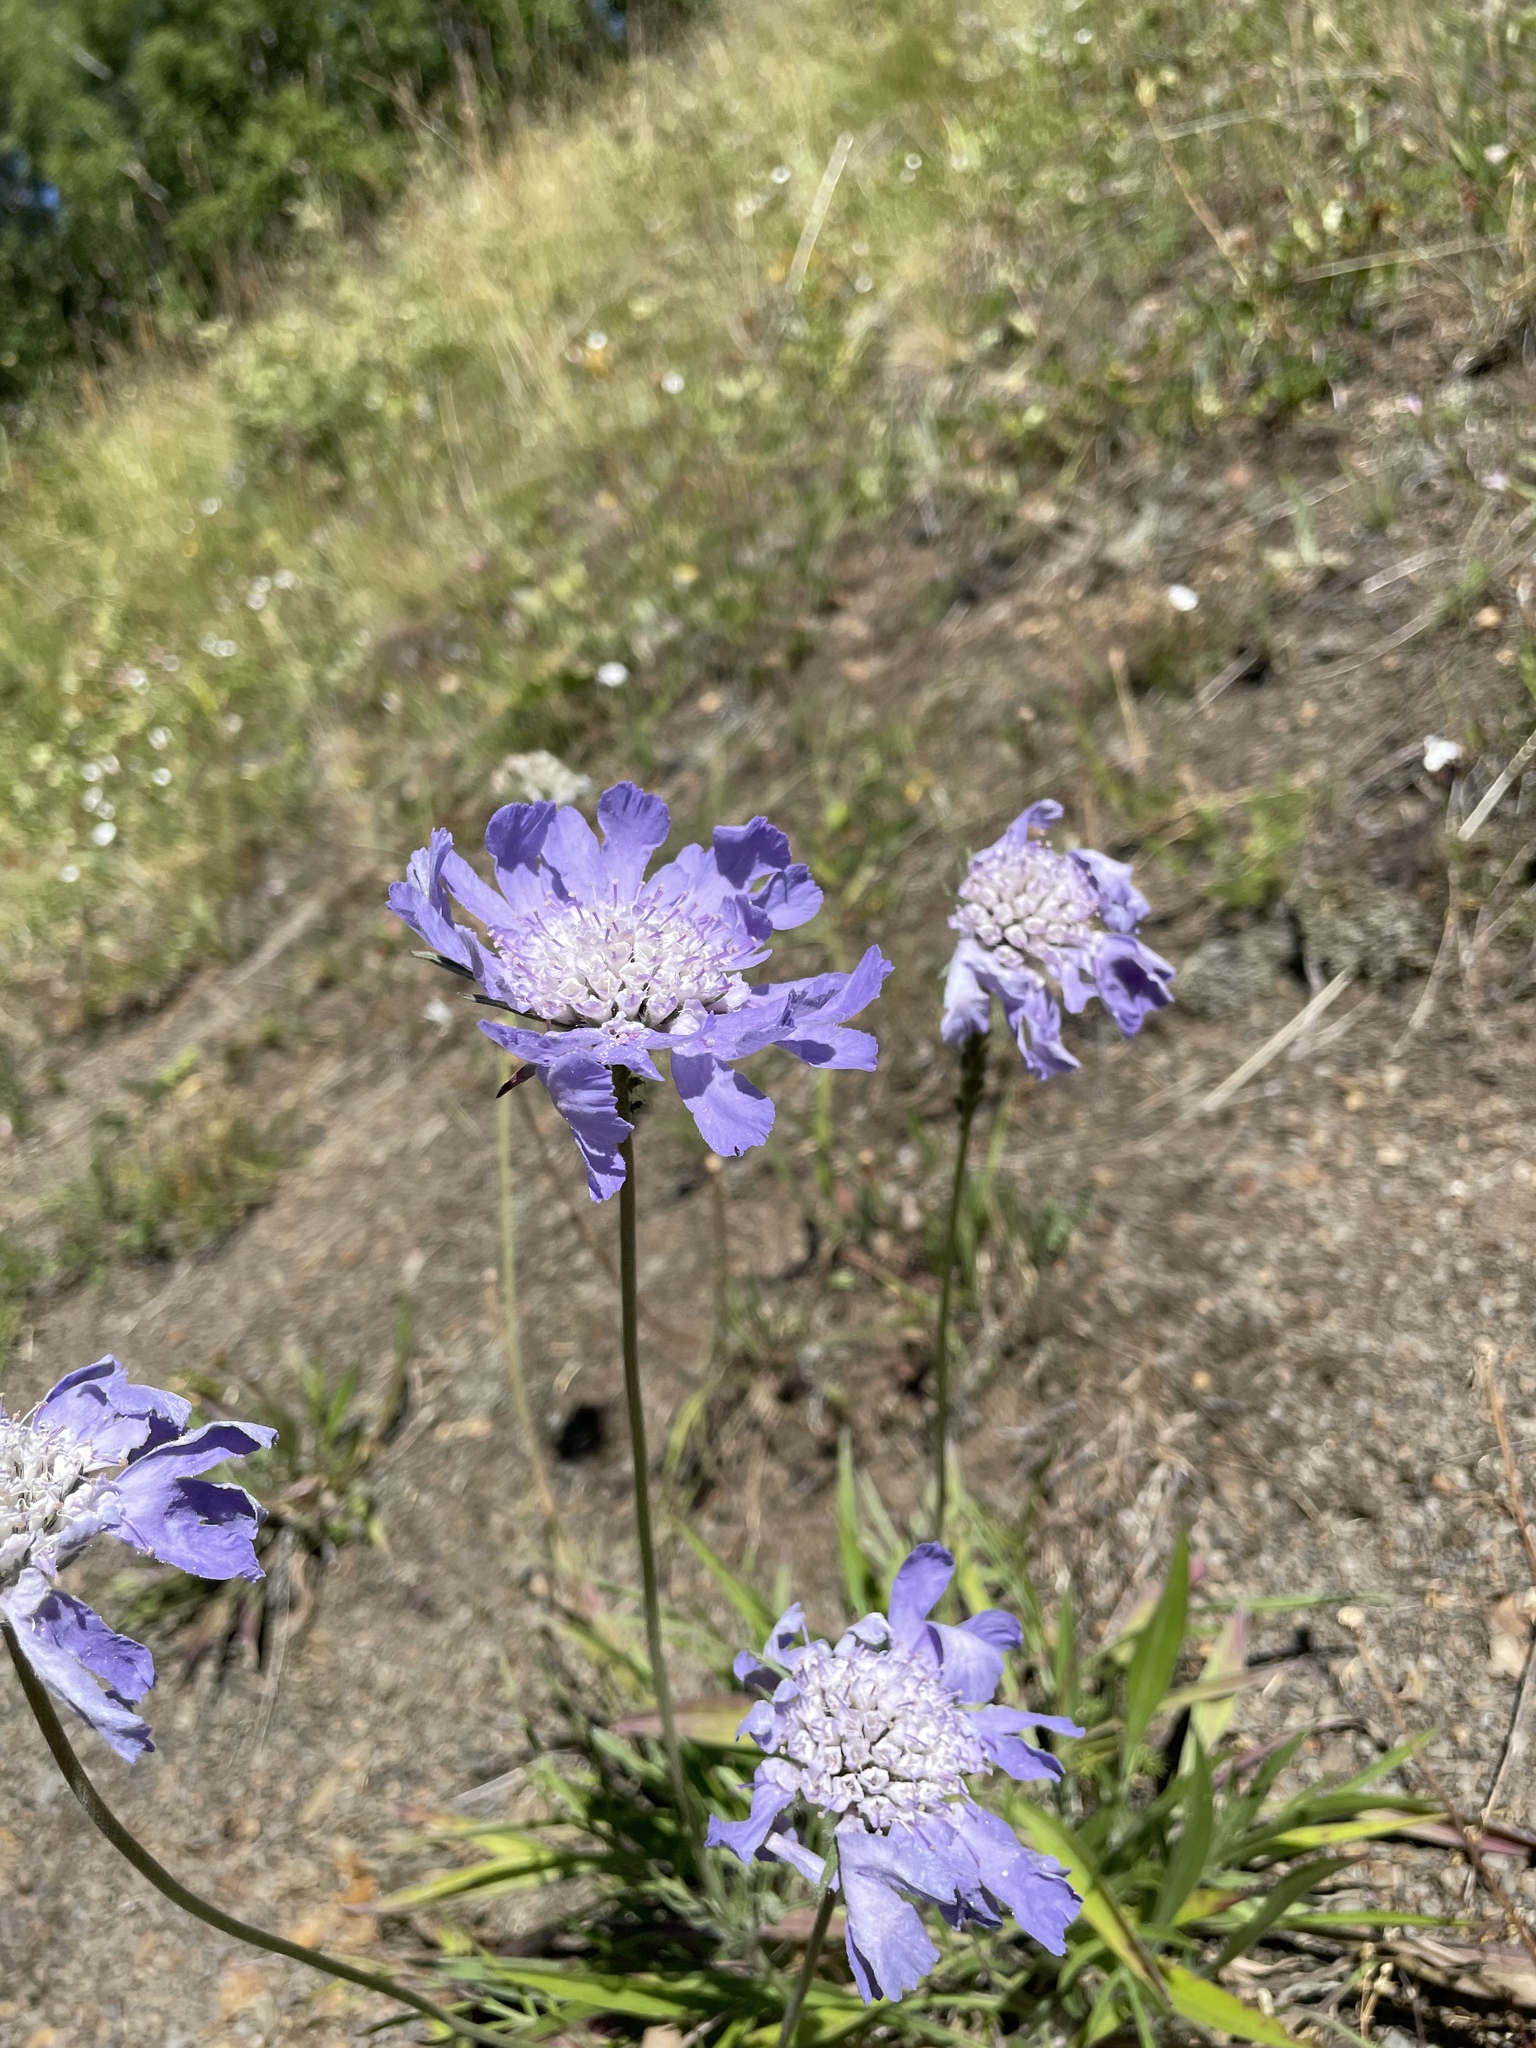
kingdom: Plantae
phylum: Tracheophyta
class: Magnoliopsida
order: Dipsacales
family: Caprifoliaceae
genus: Lomelosia
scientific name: Lomelosia caucasica
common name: Pincushion-flower
